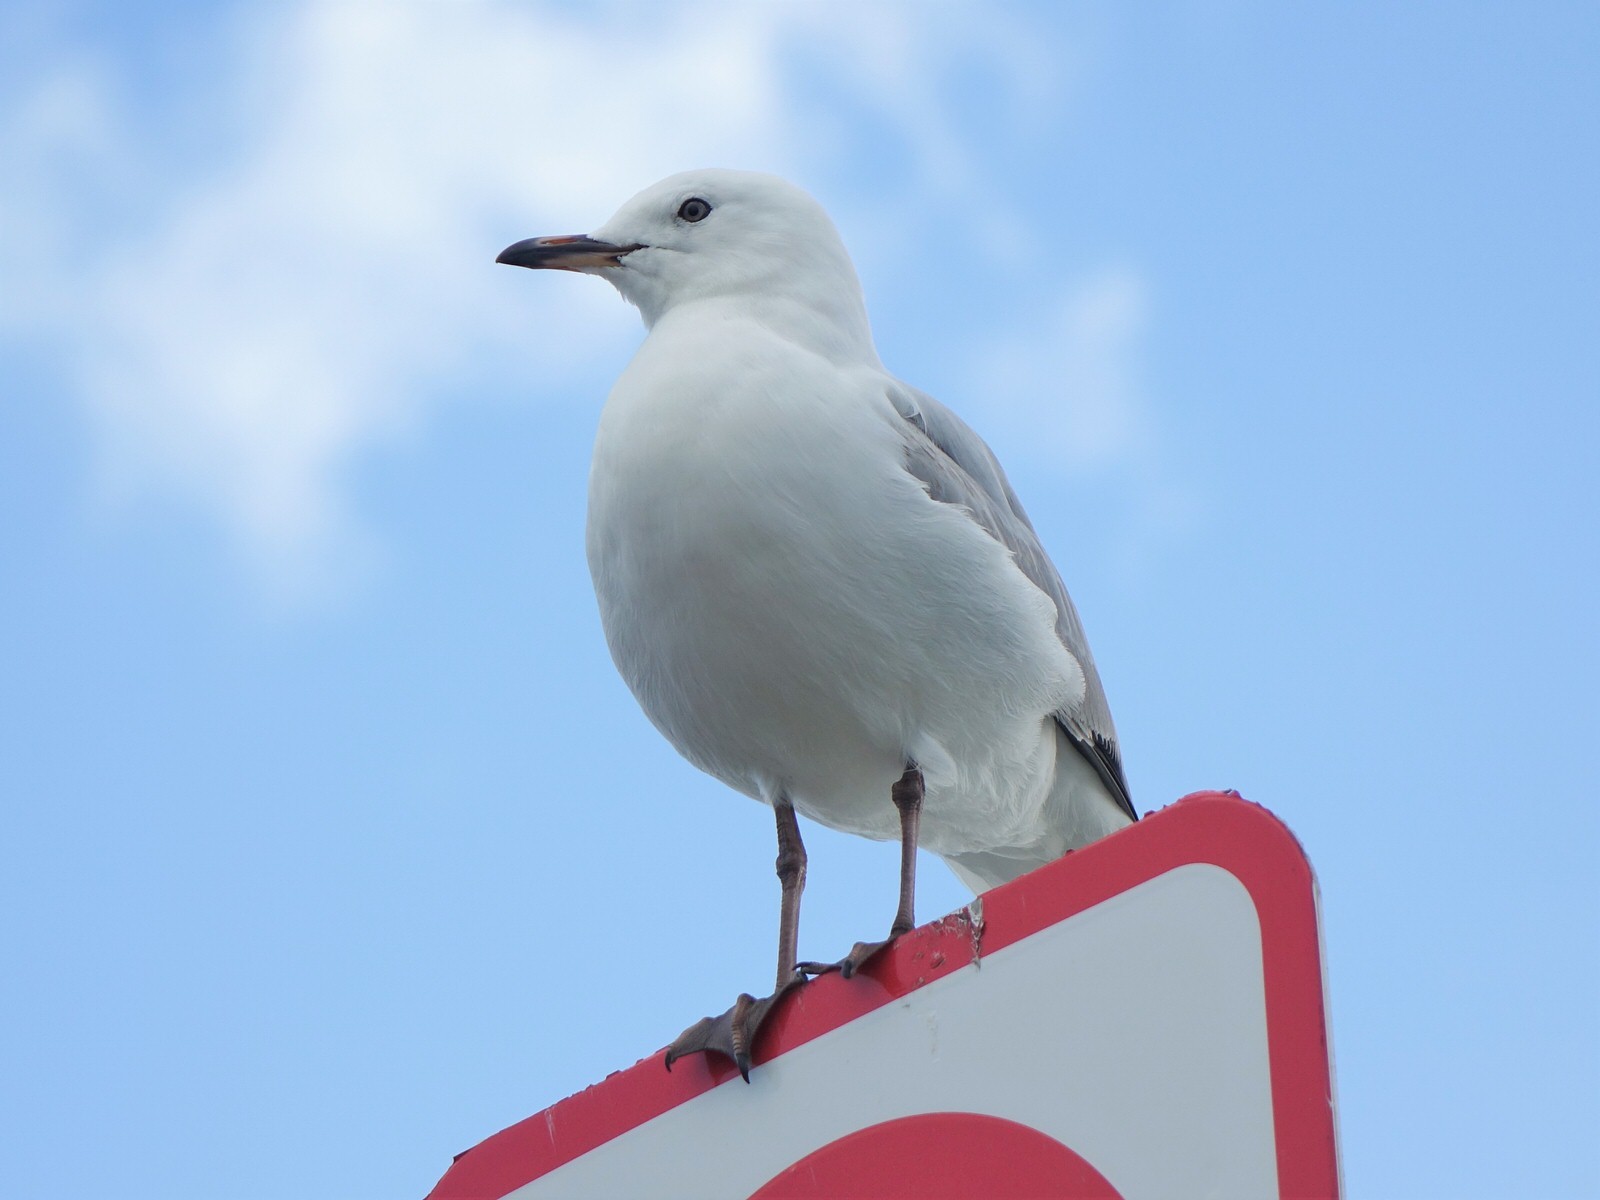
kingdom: Animalia
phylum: Chordata
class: Aves
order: Charadriiformes
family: Laridae
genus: Chroicocephalus
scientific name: Chroicocephalus novaehollandiae
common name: Silver gull
